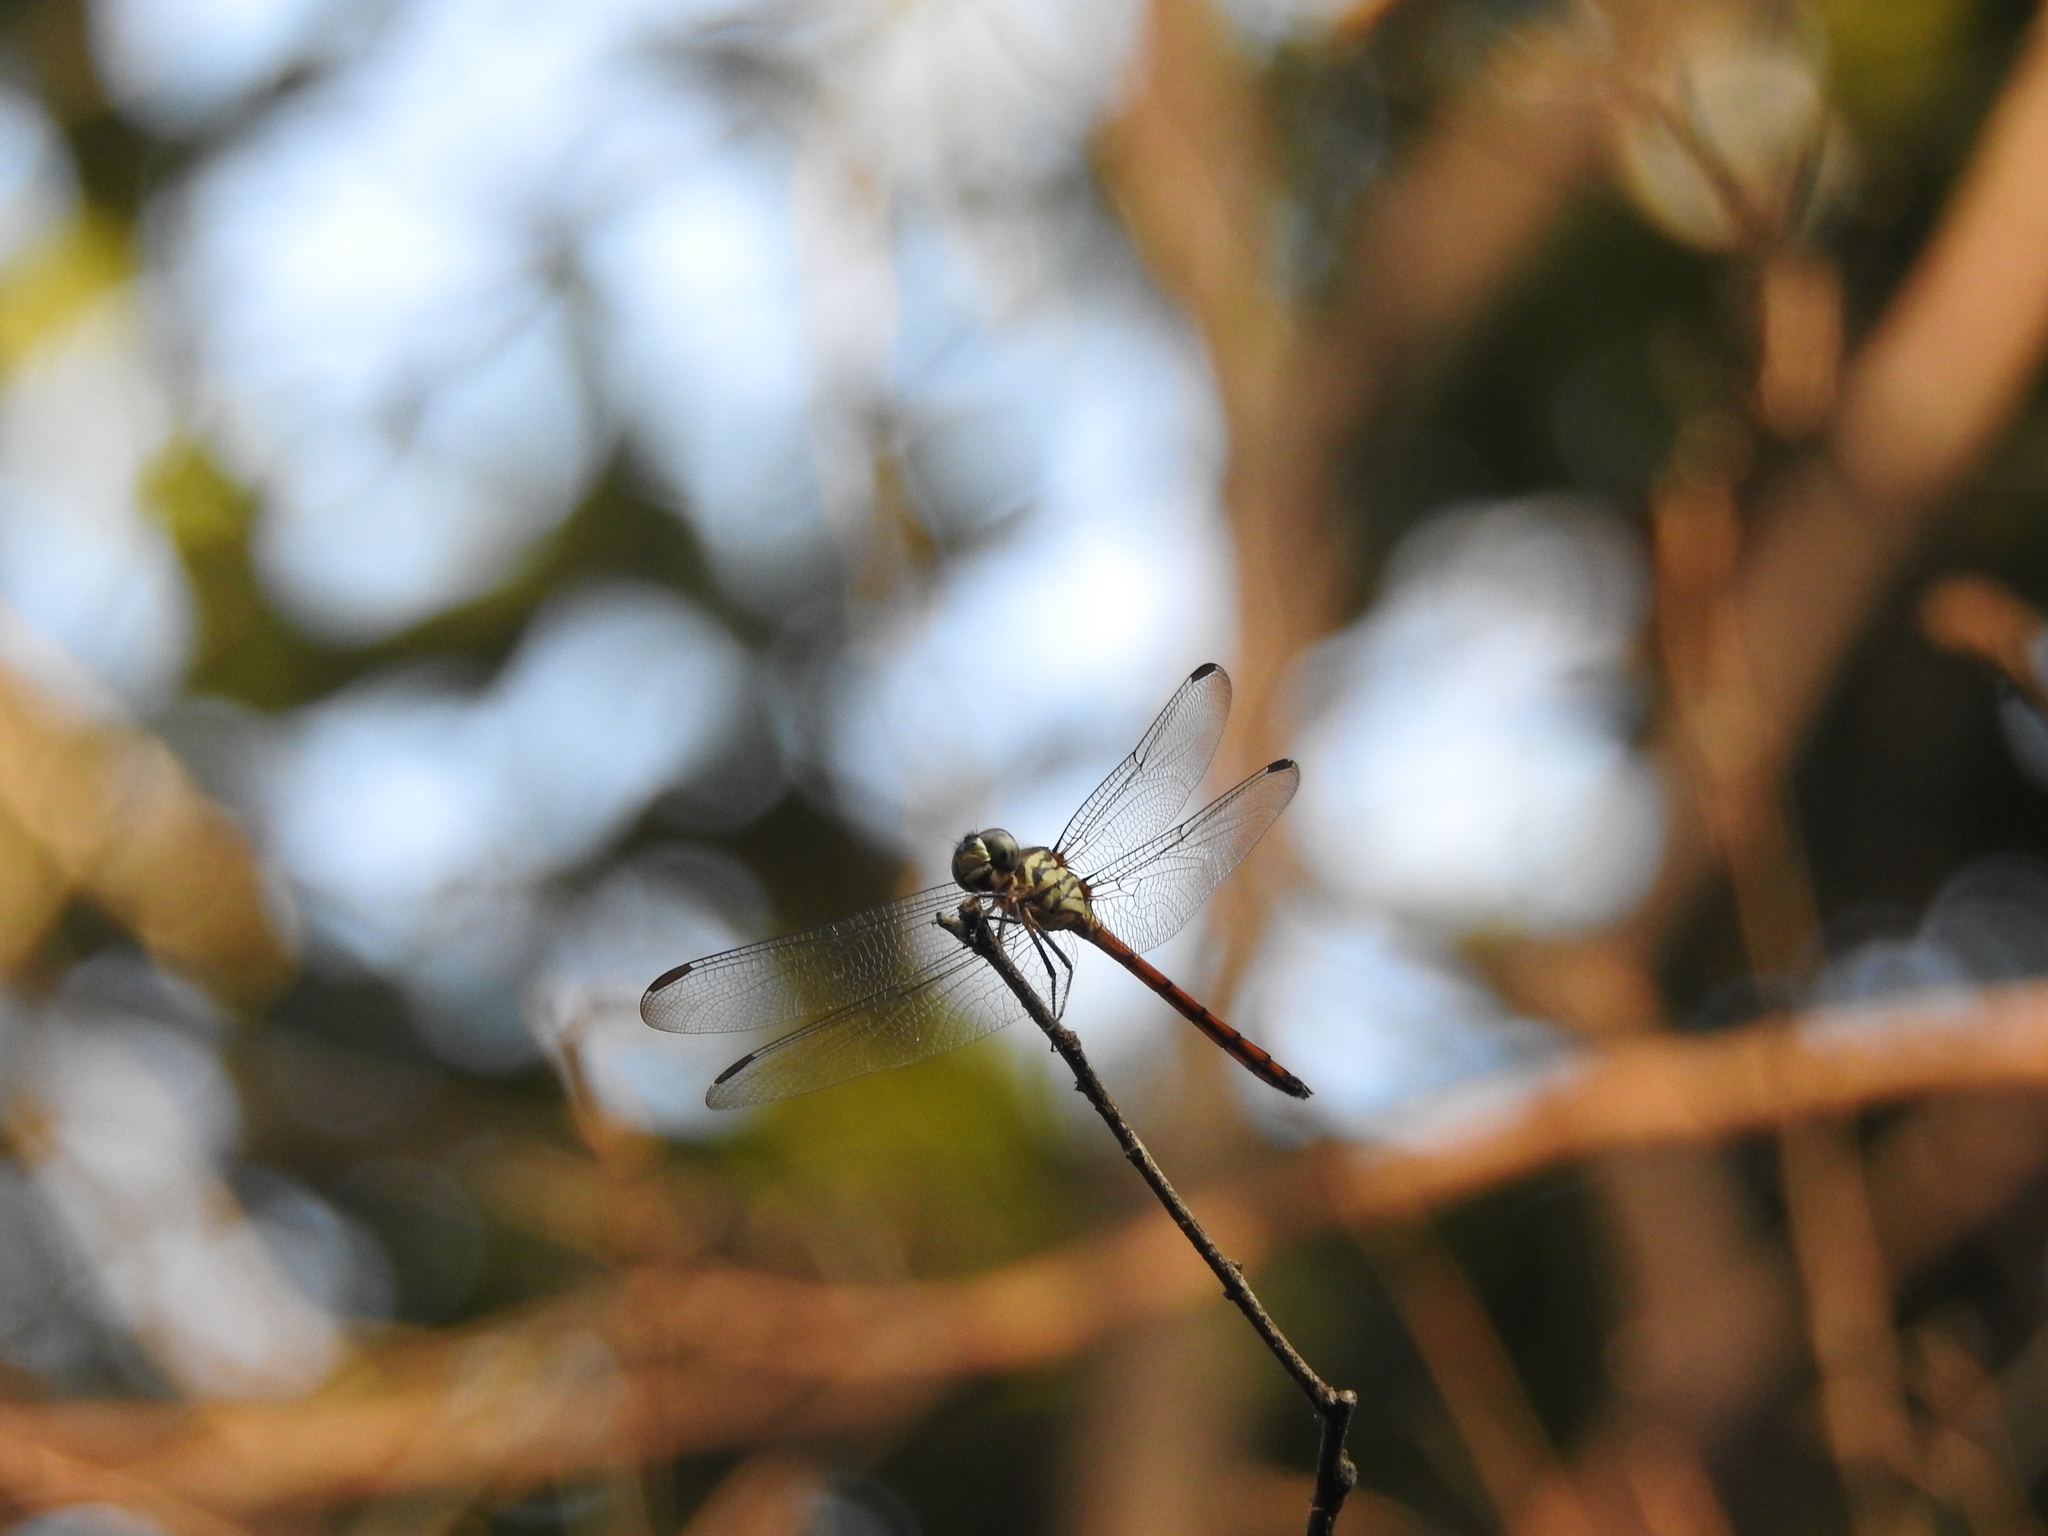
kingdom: Animalia
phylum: Arthropoda
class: Insecta
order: Odonata
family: Libellulidae
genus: Lathrecista
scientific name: Lathrecista asiatica
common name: Scarlet grenadier
